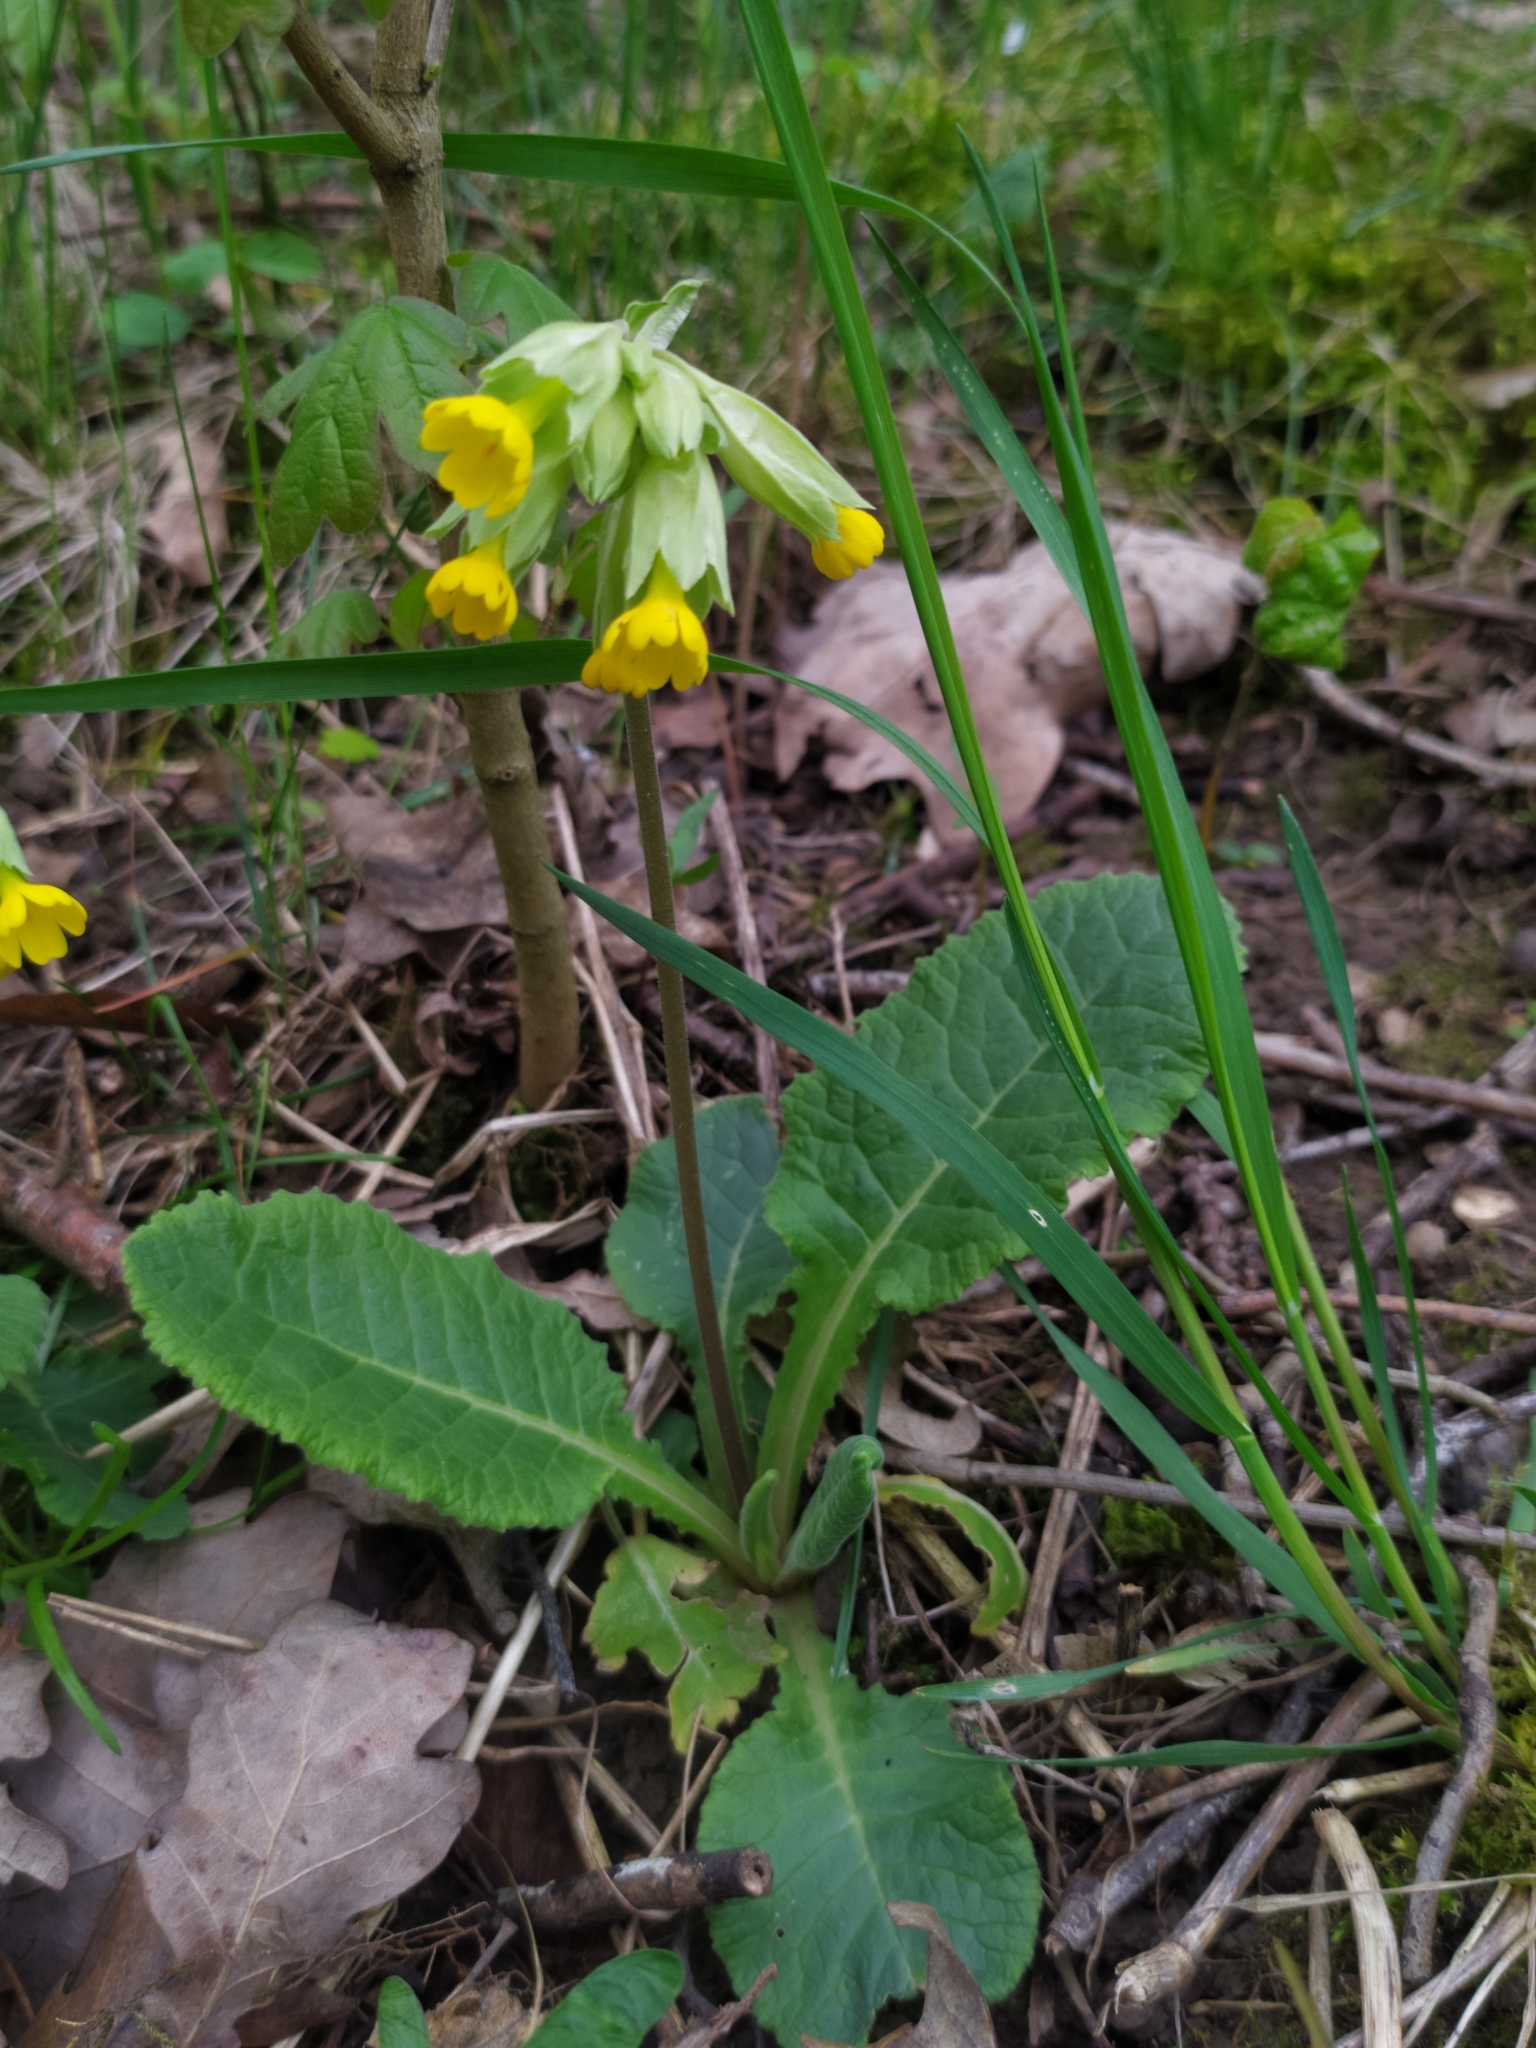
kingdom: Plantae
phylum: Tracheophyta
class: Magnoliopsida
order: Ericales
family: Primulaceae
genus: Primula
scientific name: Primula veris
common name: Cowslip
